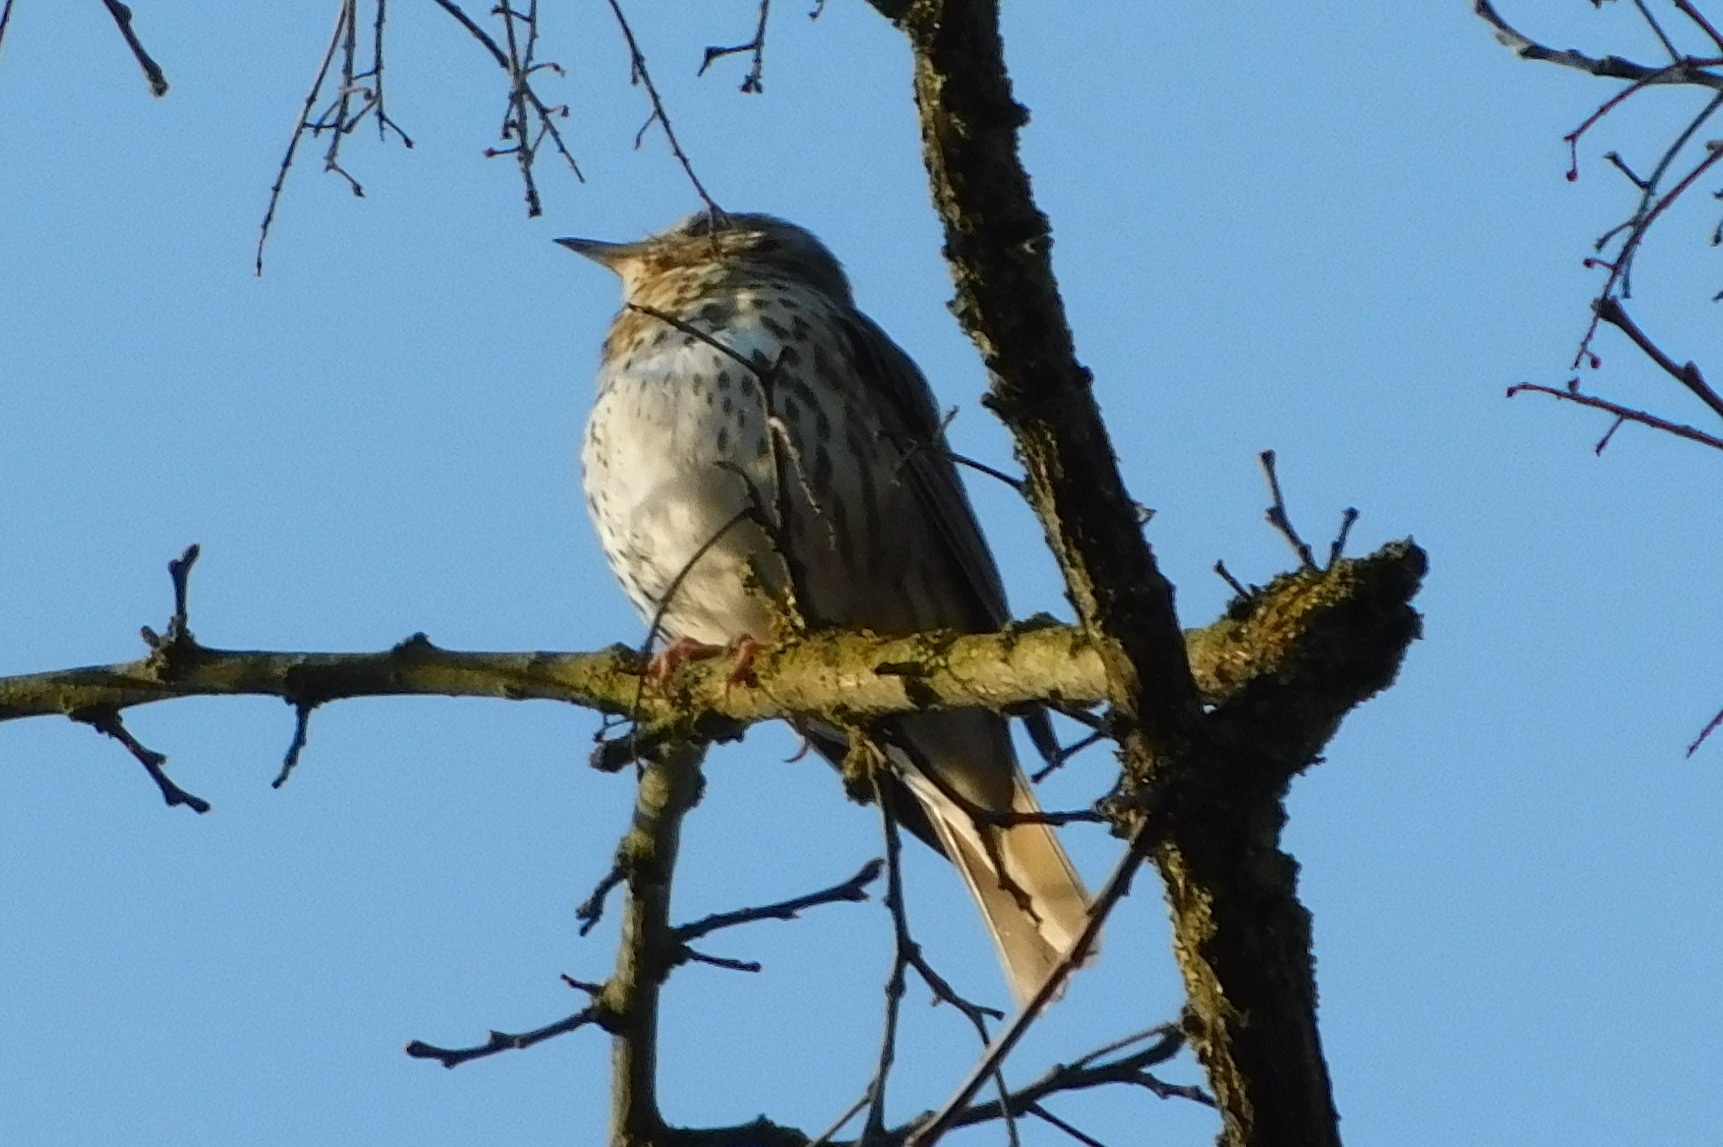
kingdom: Animalia
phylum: Chordata
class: Aves
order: Passeriformes
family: Turdidae
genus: Turdus
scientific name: Turdus philomelos
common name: Song thrush
